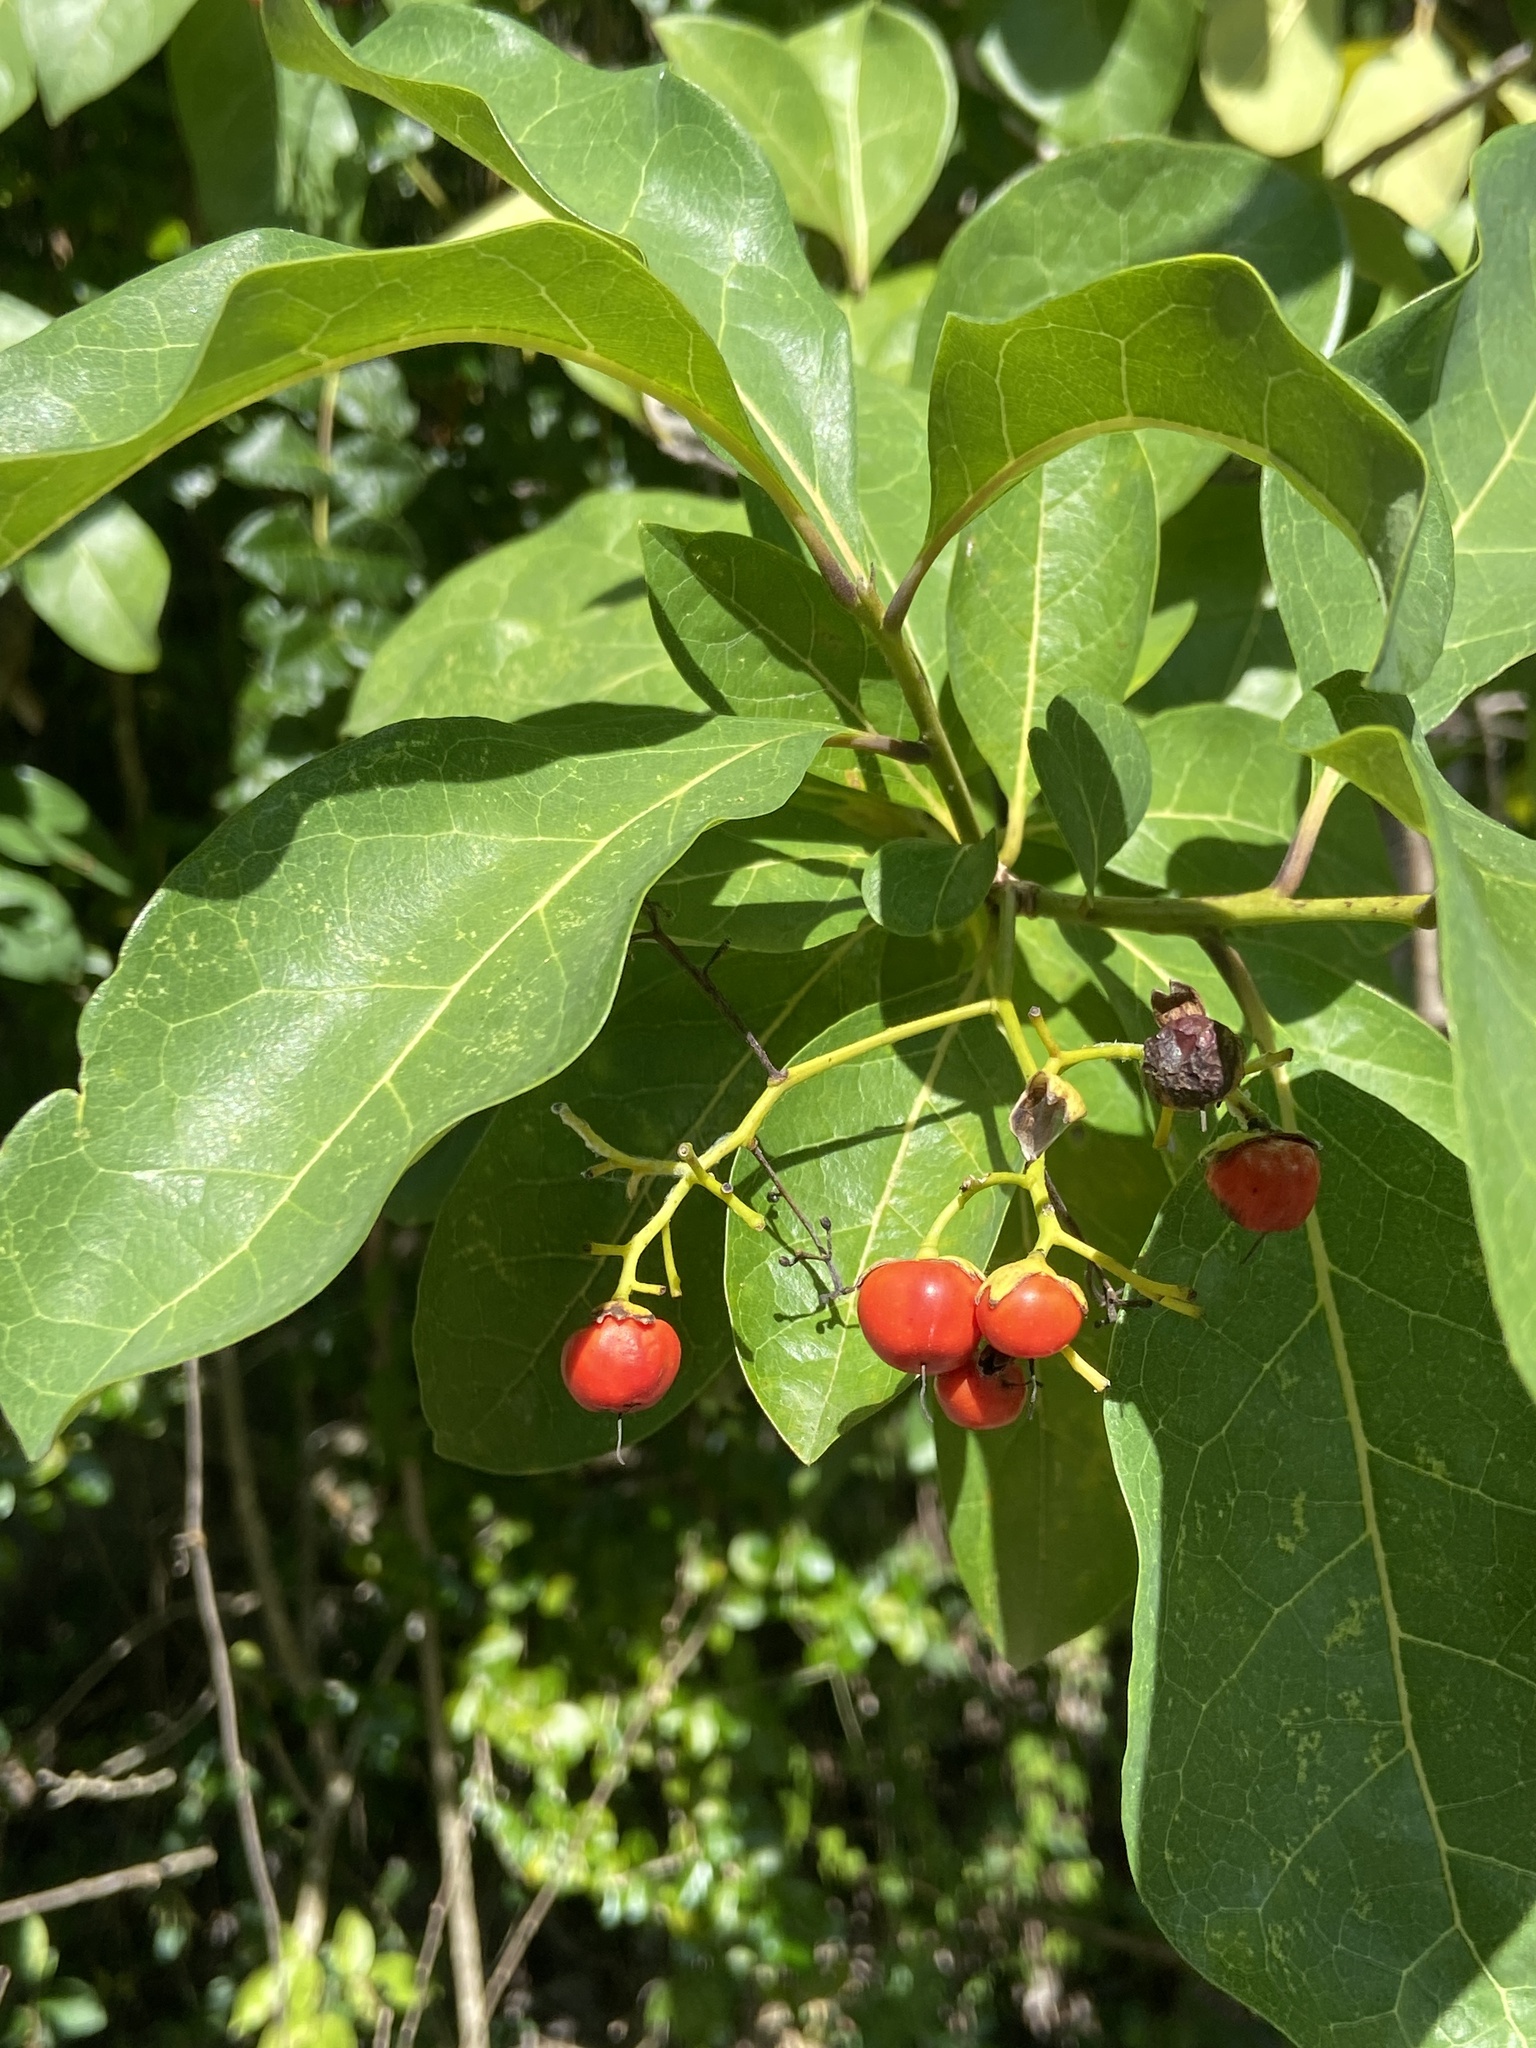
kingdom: Plantae
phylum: Tracheophyta
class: Magnoliopsida
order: Boraginales
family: Ehretiaceae
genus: Bourreria
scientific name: Bourreria succulenta
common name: Cherry
